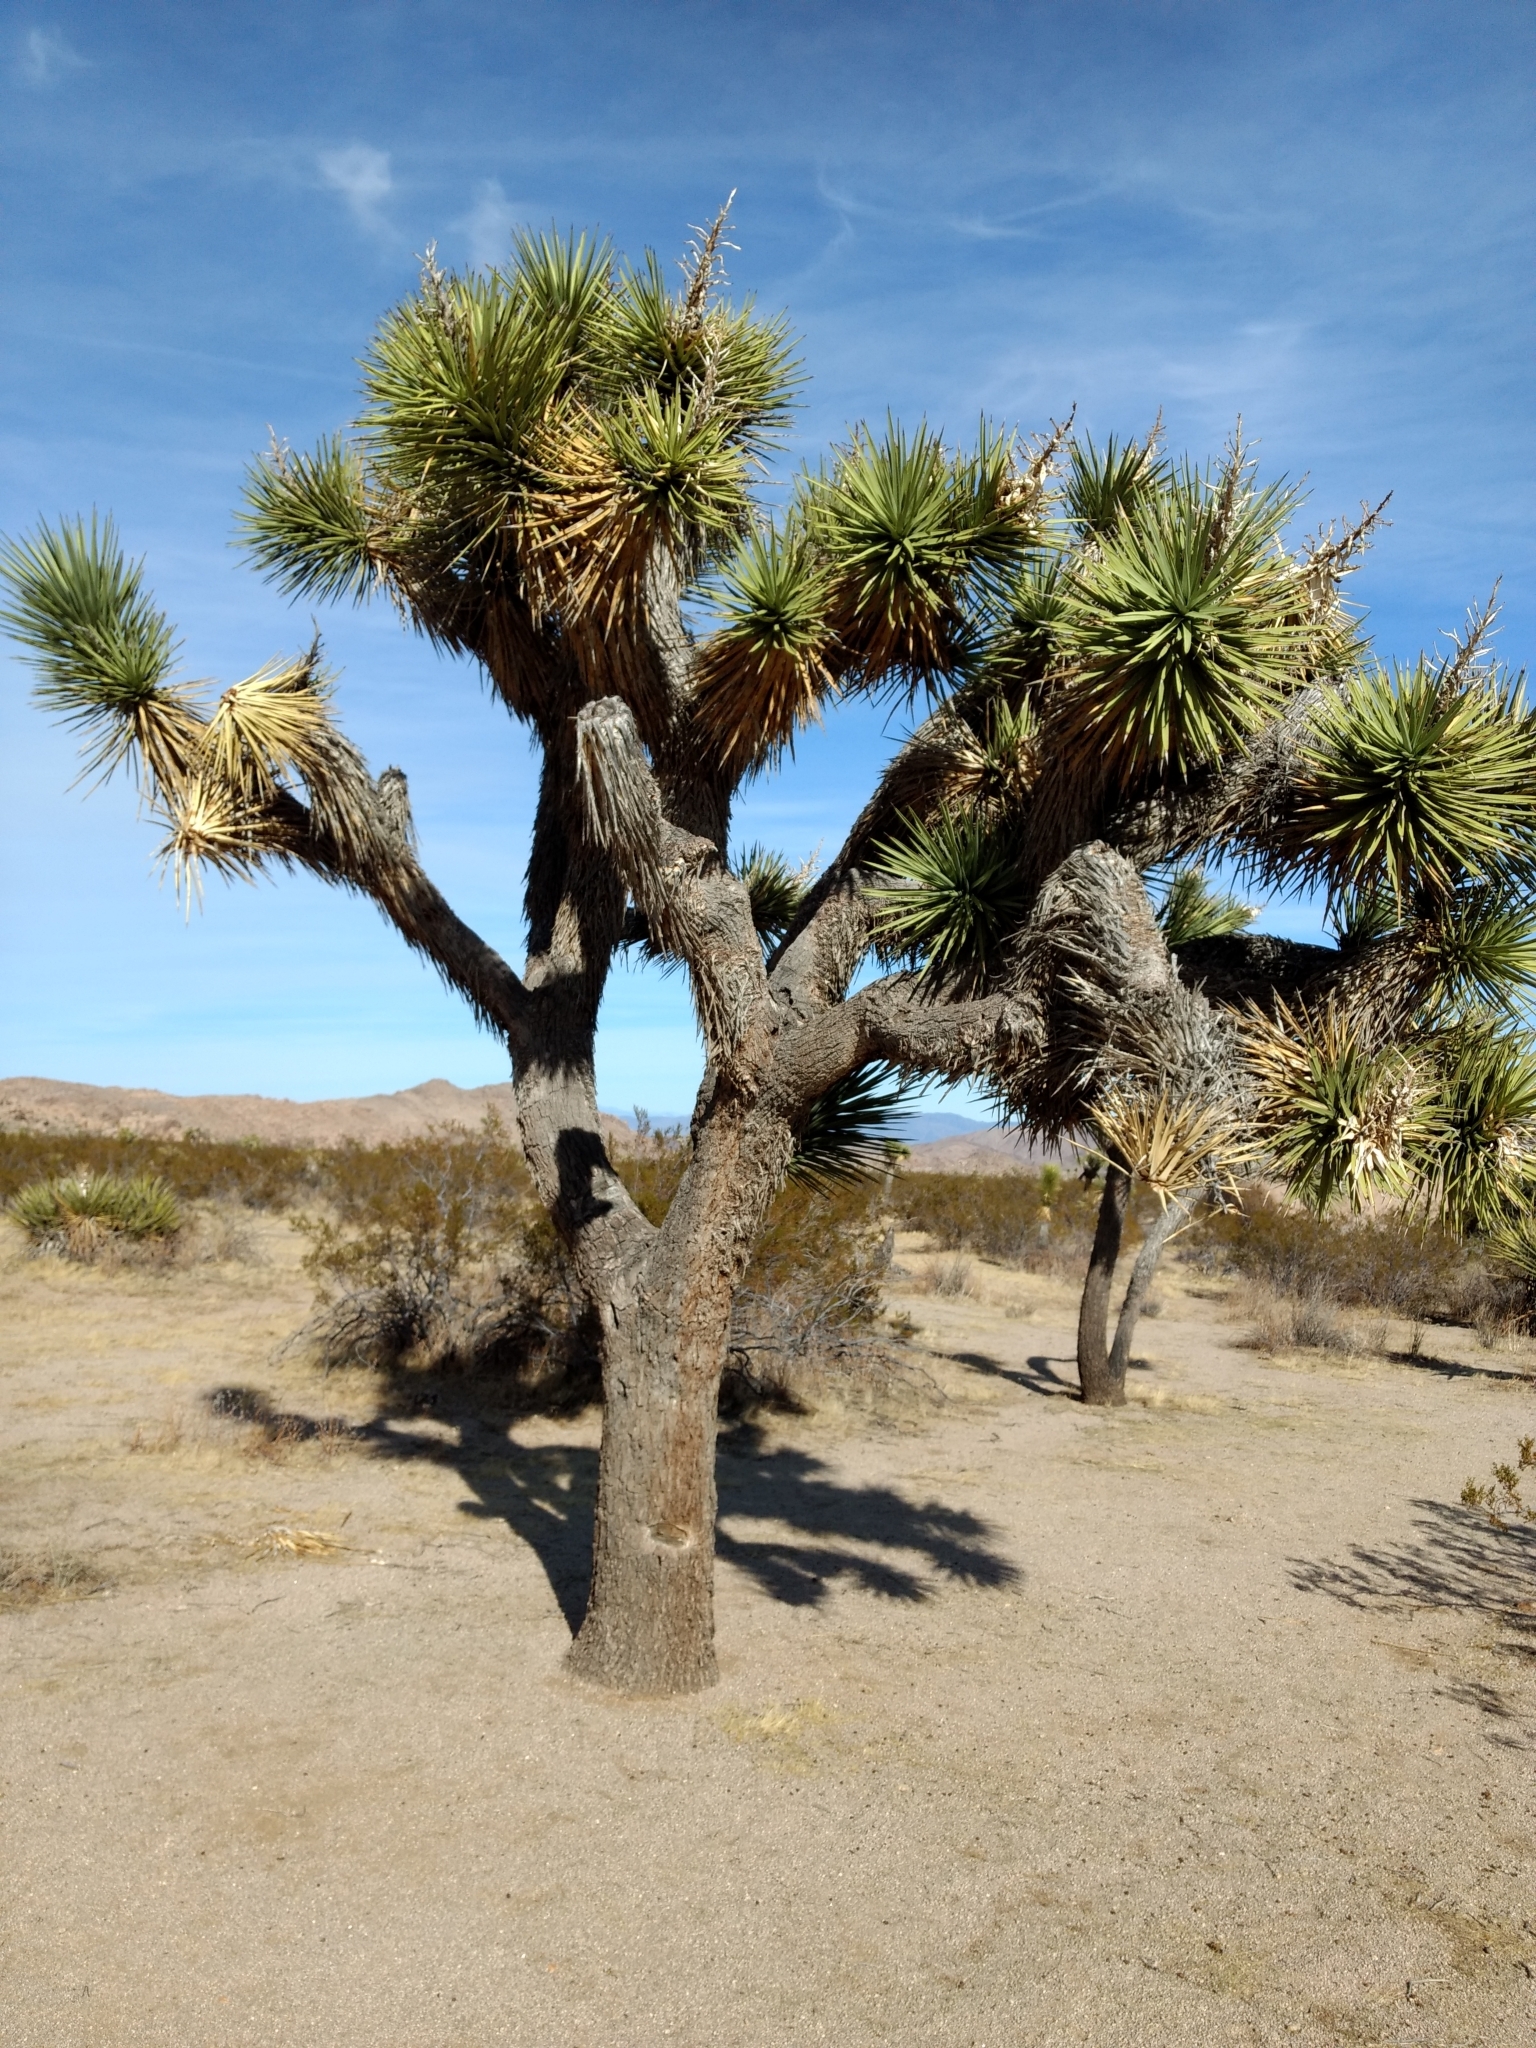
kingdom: Plantae
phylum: Tracheophyta
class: Liliopsida
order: Asparagales
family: Asparagaceae
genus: Yucca
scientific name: Yucca brevifolia
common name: Joshua tree
